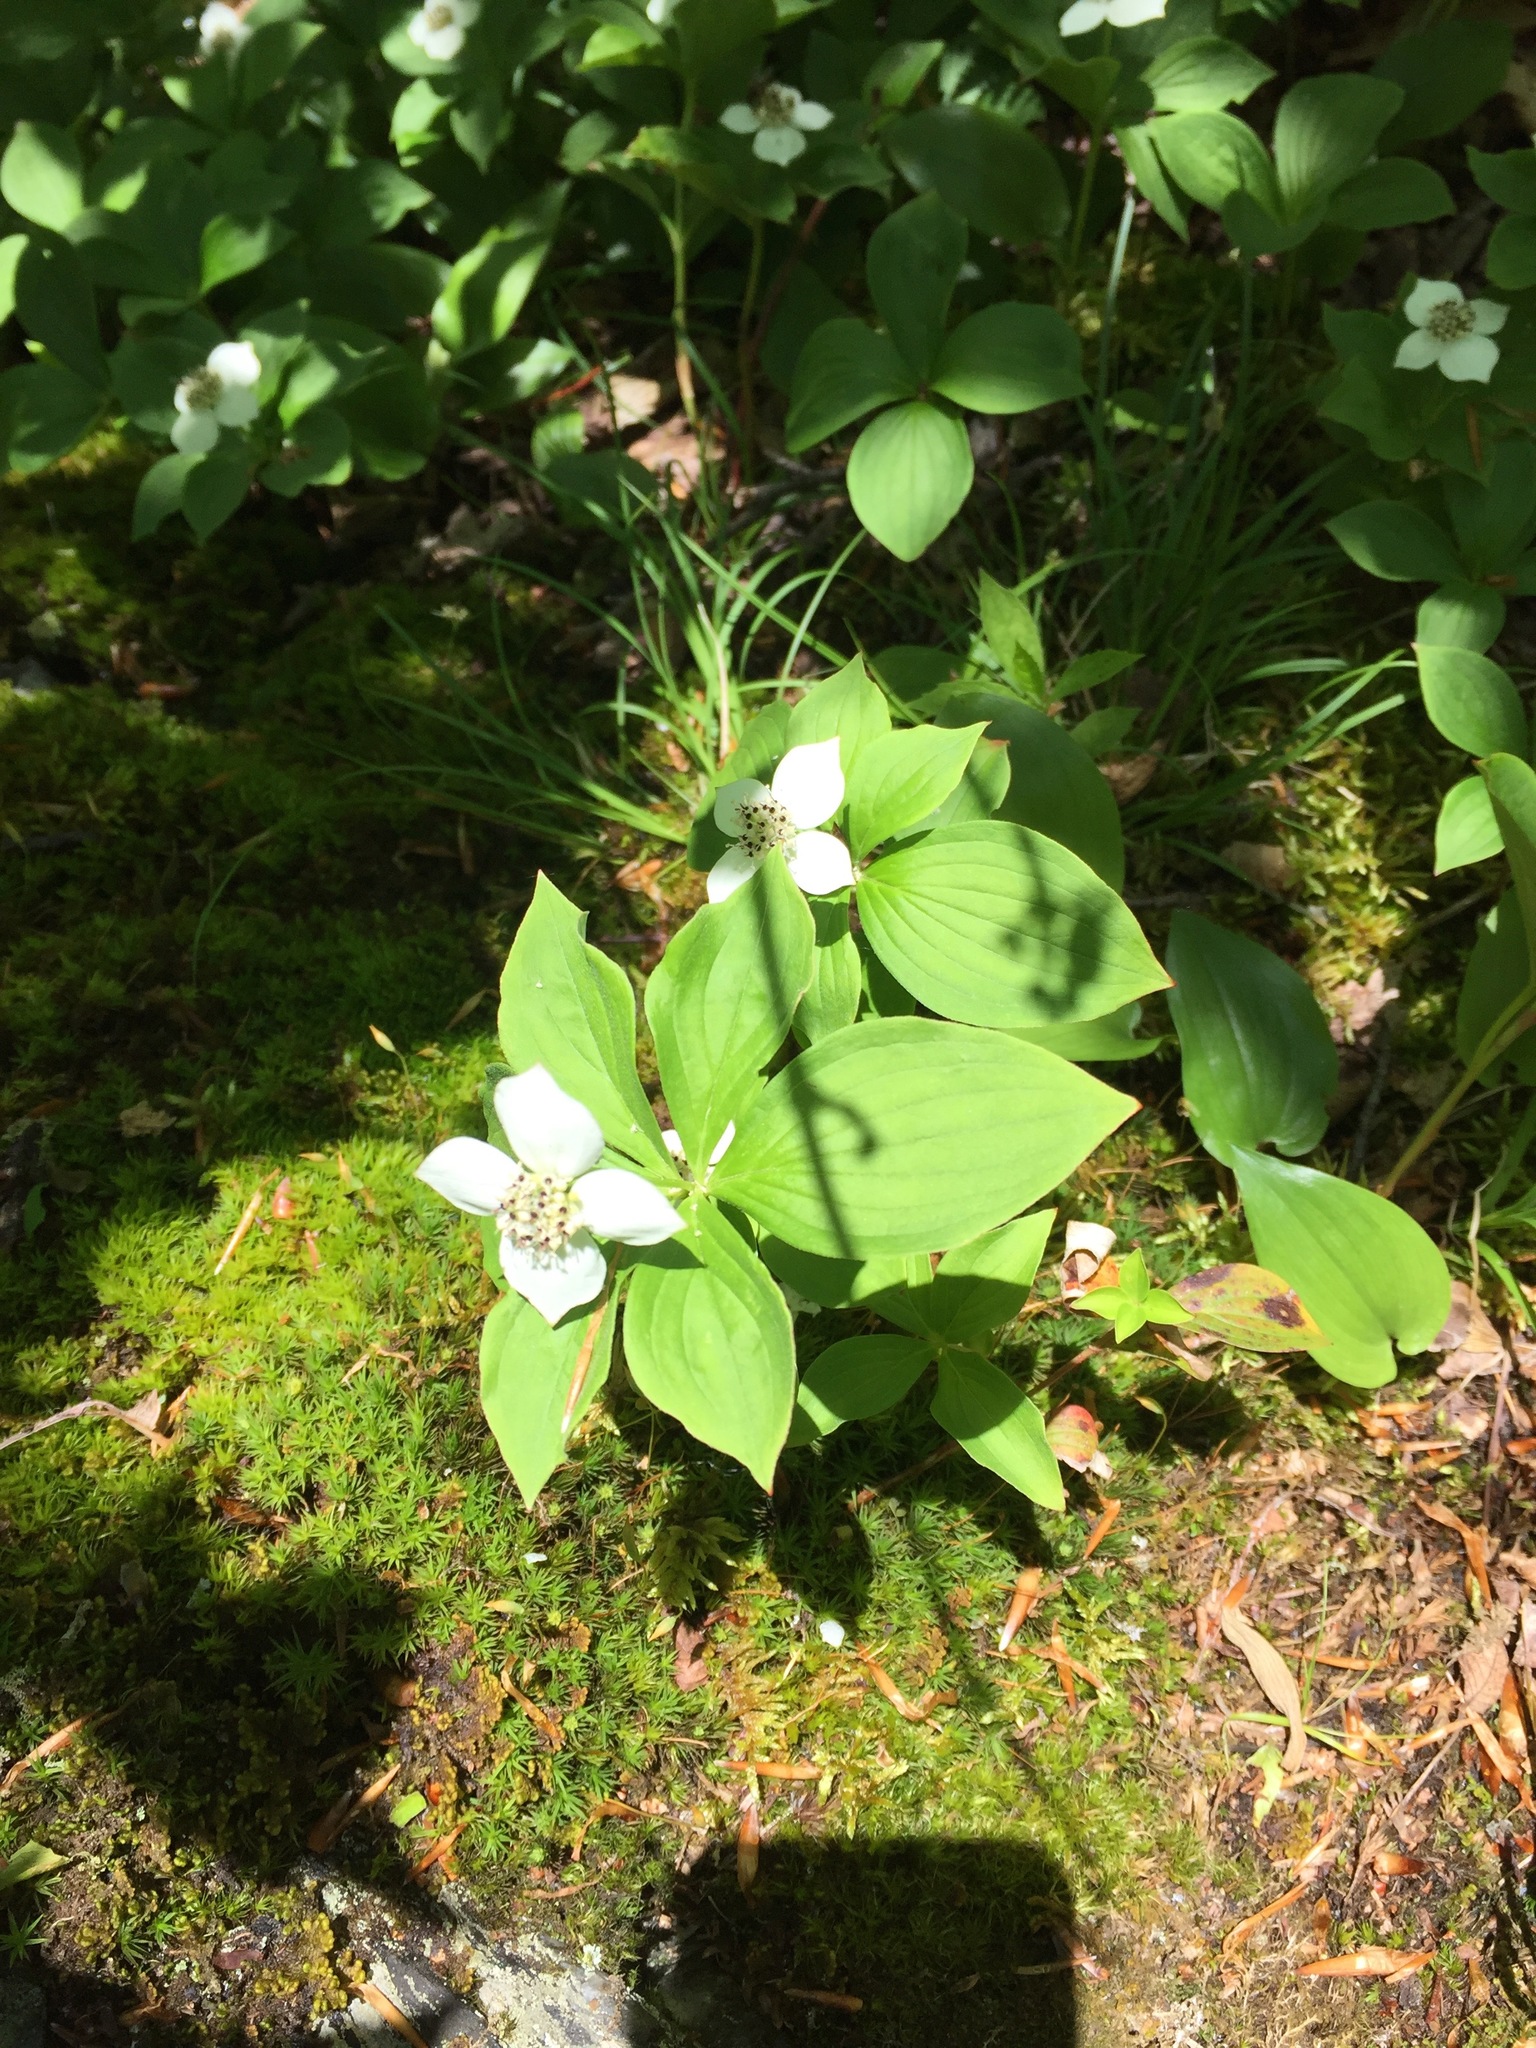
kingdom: Plantae
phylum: Tracheophyta
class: Magnoliopsida
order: Cornales
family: Cornaceae
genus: Cornus
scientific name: Cornus canadensis
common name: Creeping dogwood
